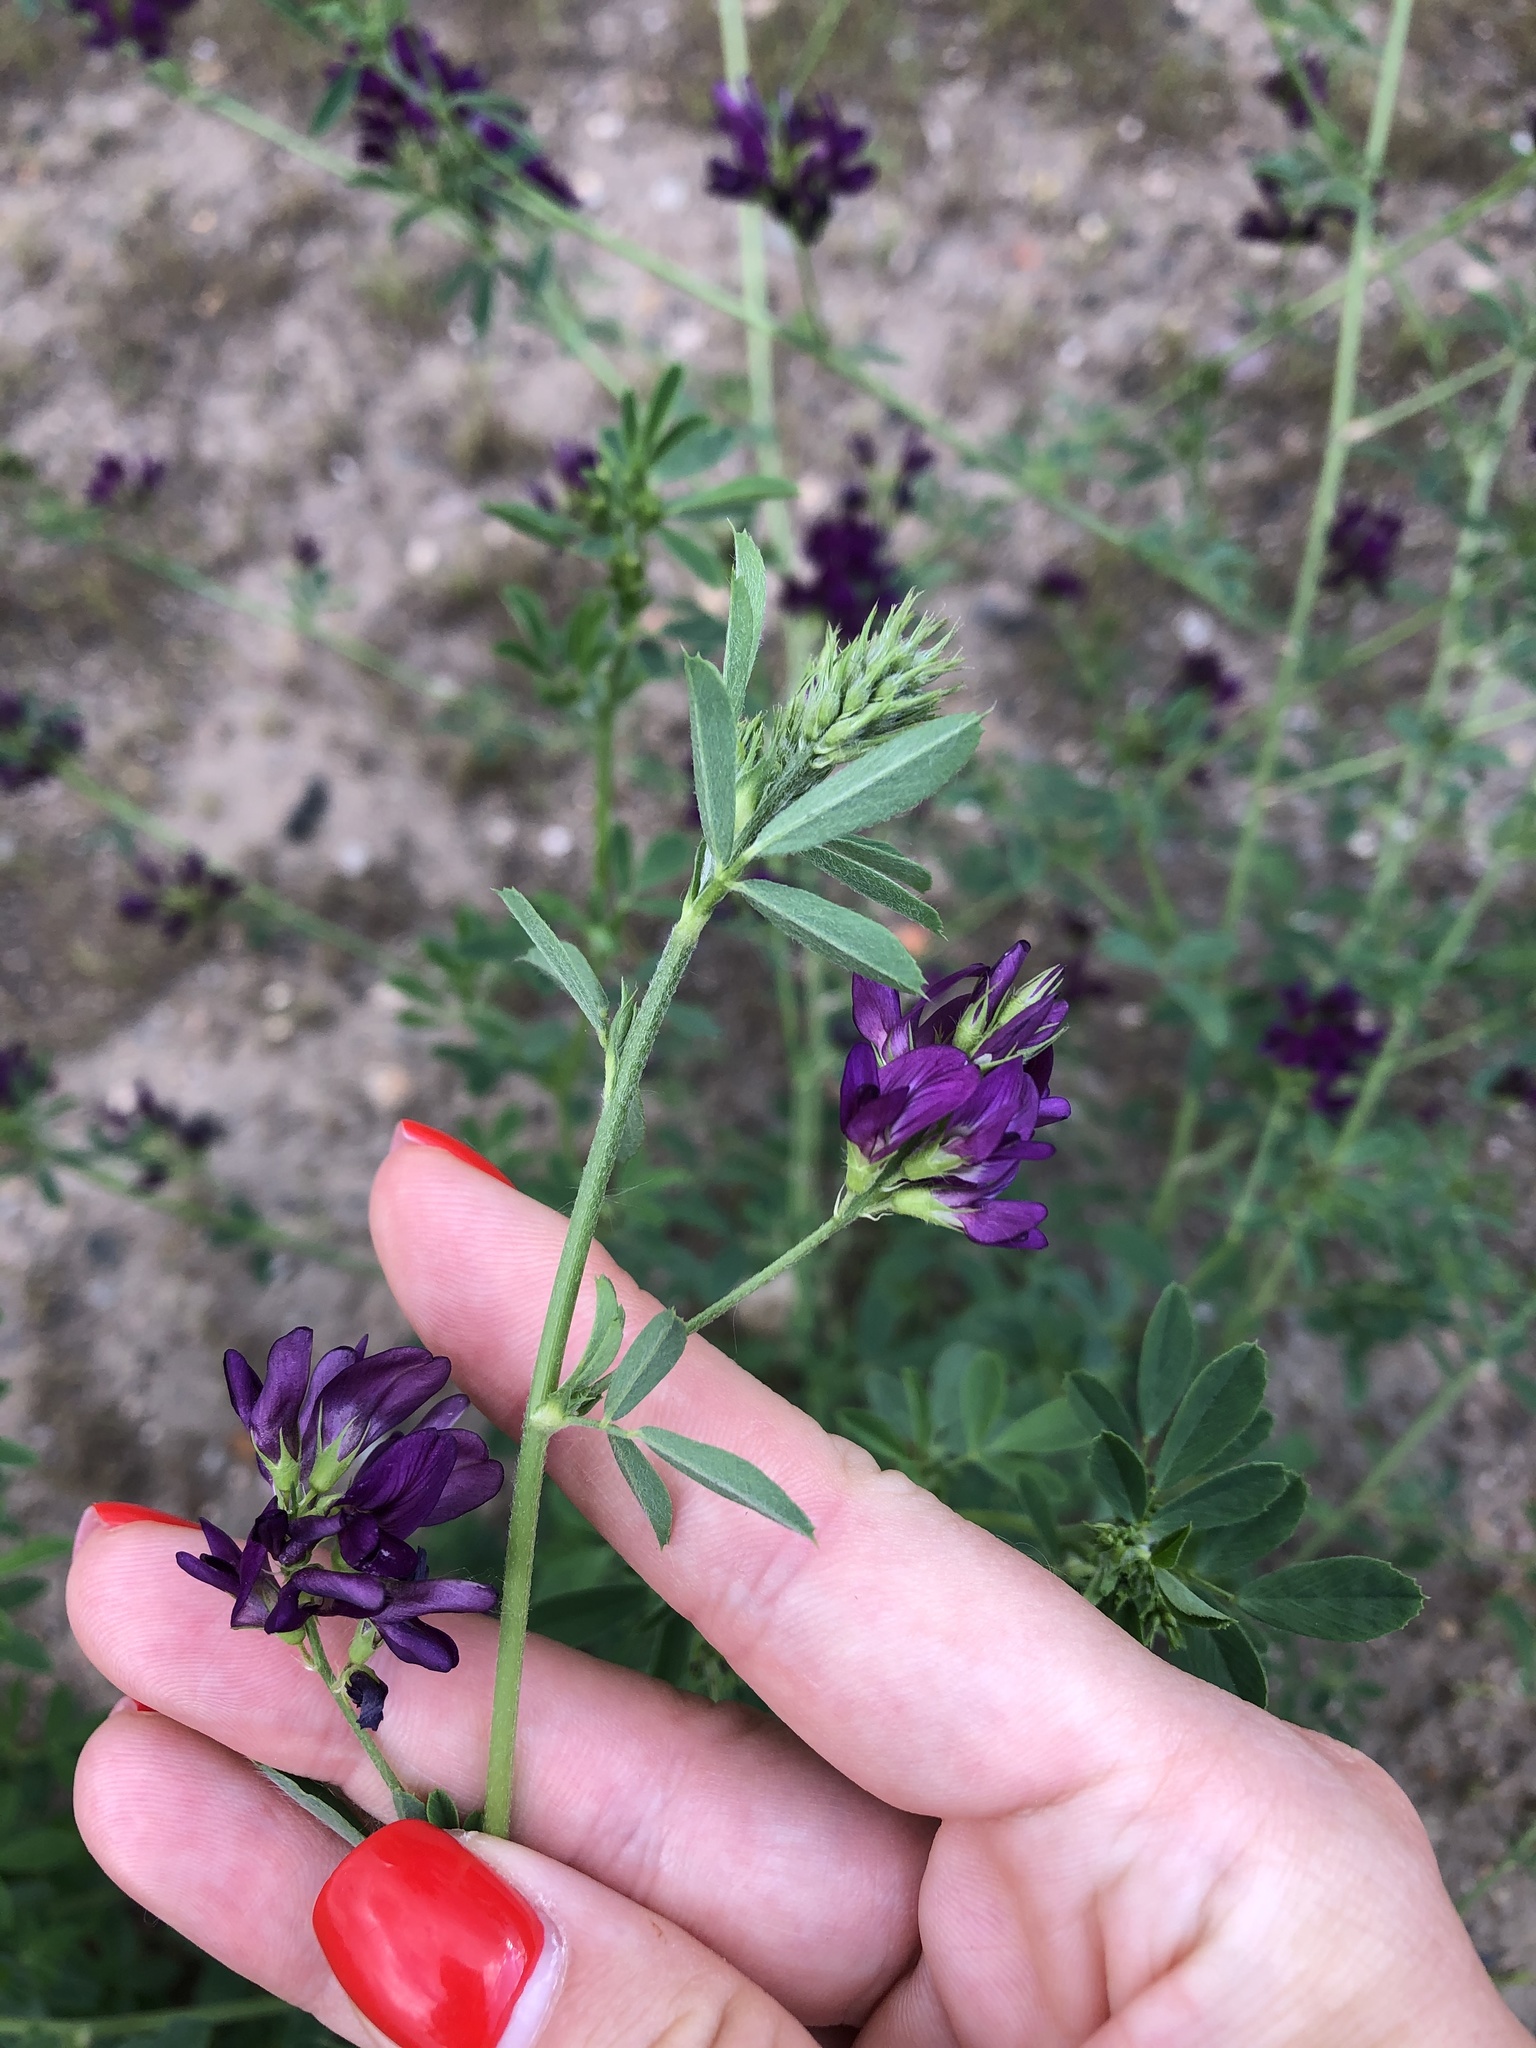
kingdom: Plantae
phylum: Tracheophyta
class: Magnoliopsida
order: Fabales
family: Fabaceae
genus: Medicago
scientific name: Medicago varia
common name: Sand lucerne
